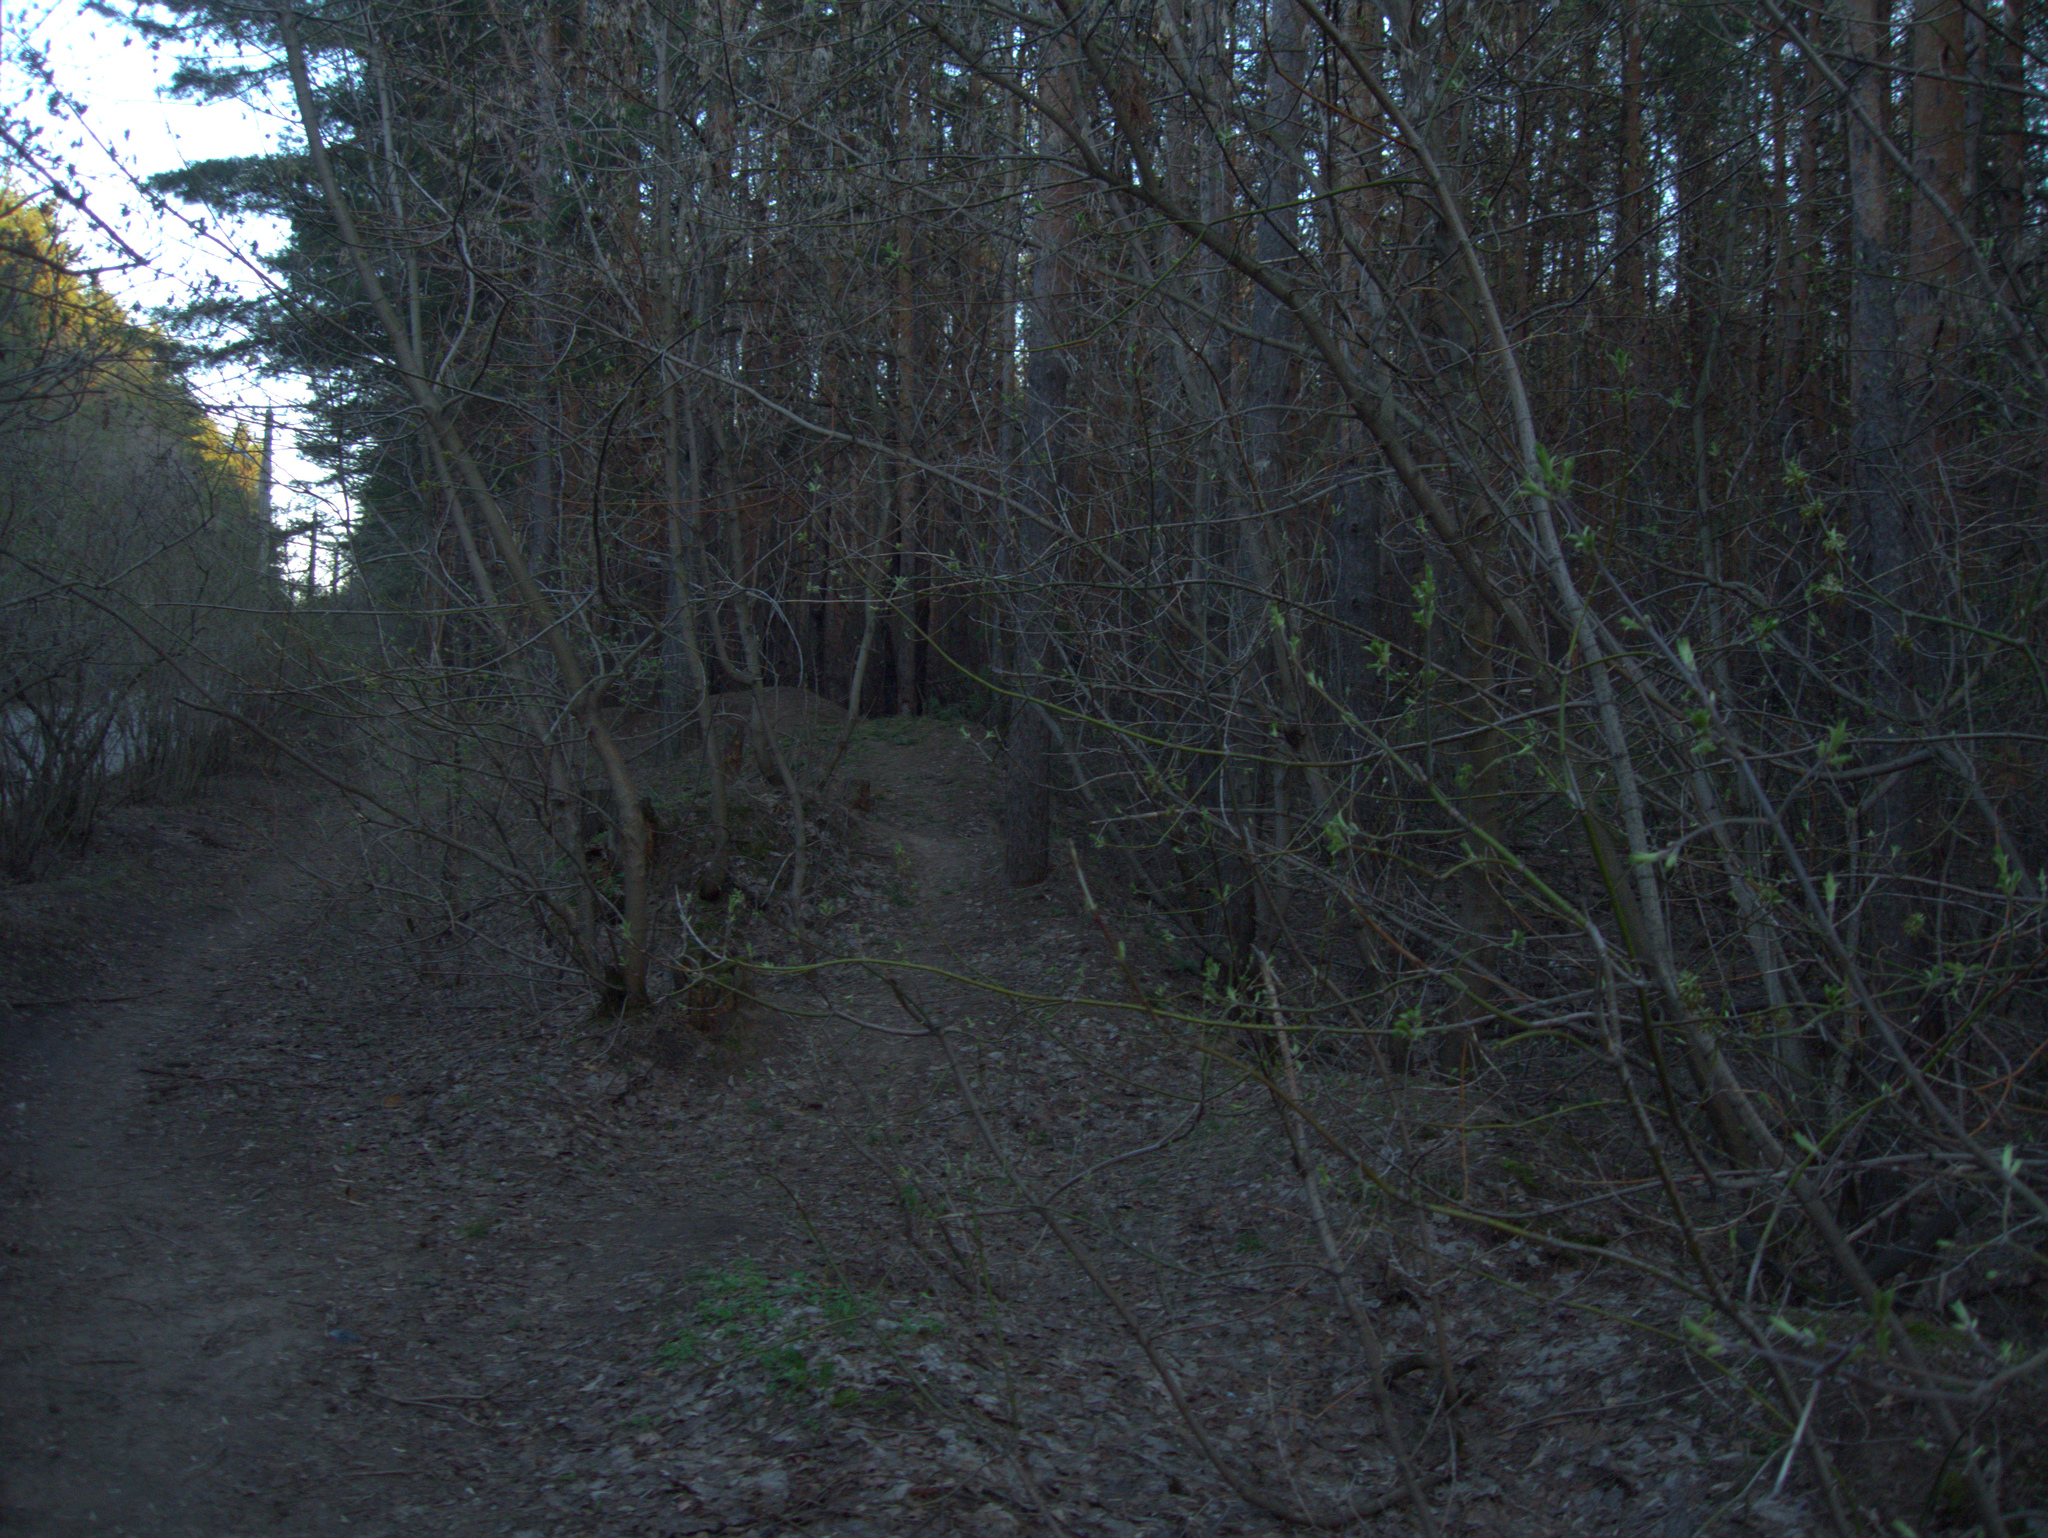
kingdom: Plantae
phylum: Tracheophyta
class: Magnoliopsida
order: Sapindales
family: Sapindaceae
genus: Acer
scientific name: Acer negundo
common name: Ashleaf maple
